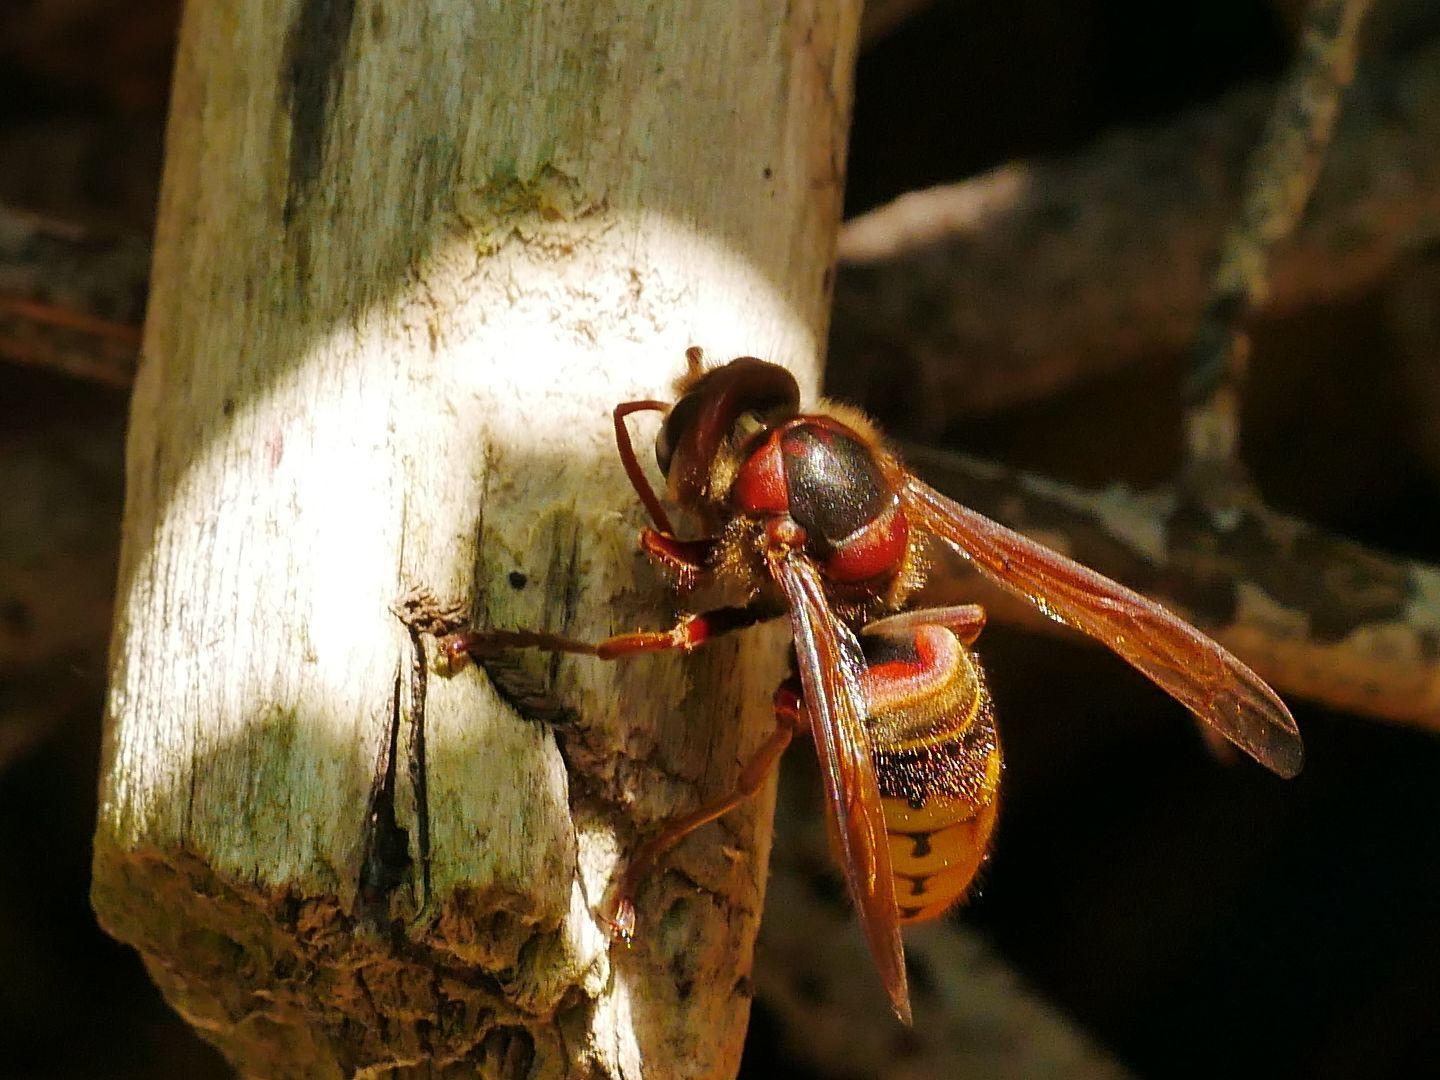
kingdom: Animalia
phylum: Arthropoda
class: Insecta
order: Hymenoptera
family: Vespidae
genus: Vespa
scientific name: Vespa crabro
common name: Hornet
